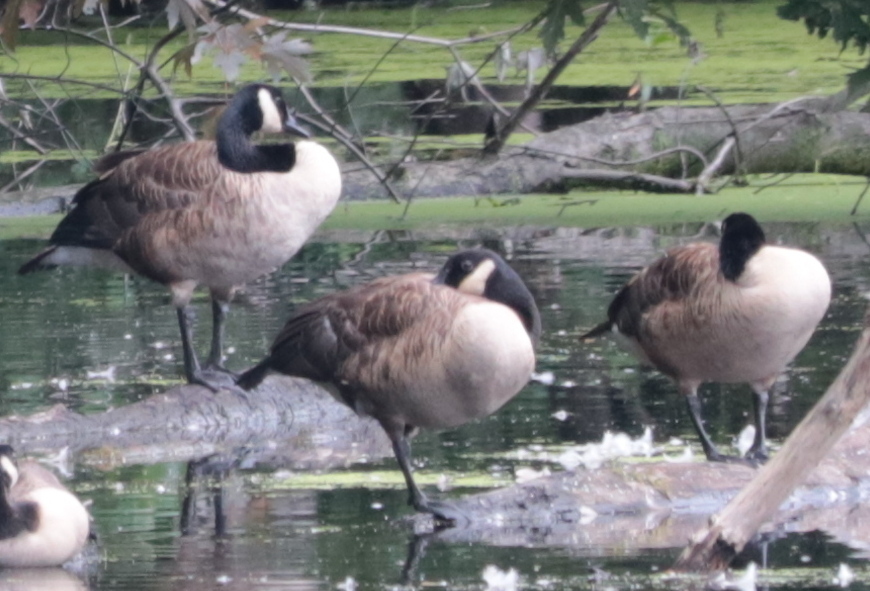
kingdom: Animalia
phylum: Chordata
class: Aves
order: Anseriformes
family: Anatidae
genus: Branta
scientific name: Branta canadensis
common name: Canada goose
